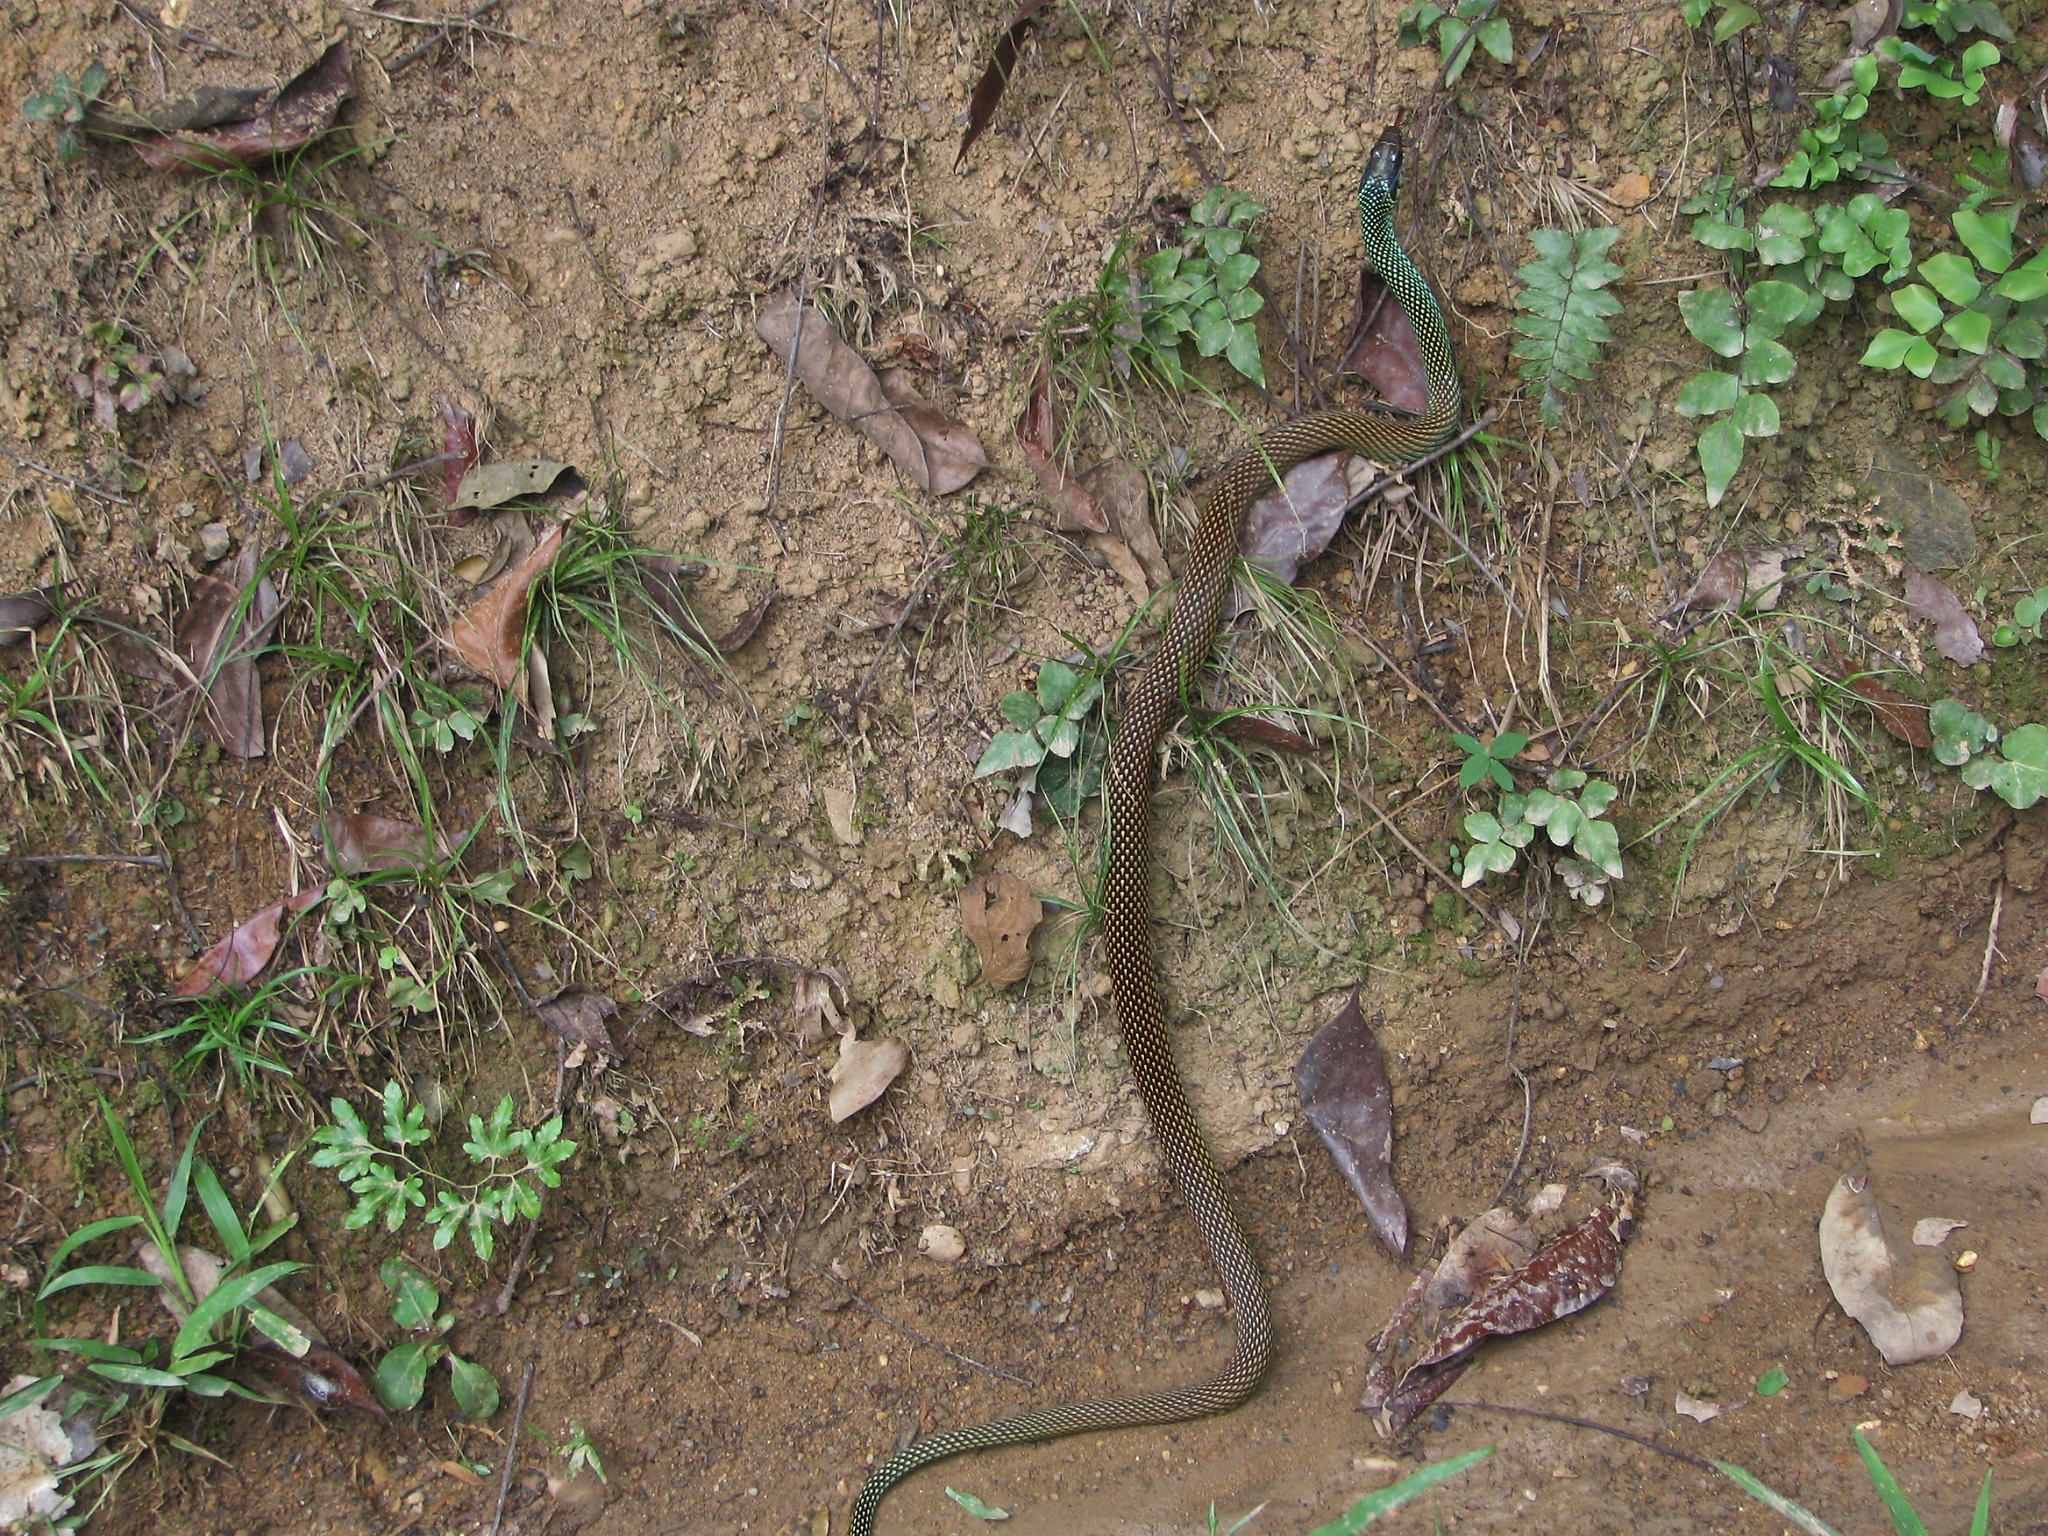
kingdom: Animalia
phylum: Chordata
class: Squamata
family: Colubridae
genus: Drymobius
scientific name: Drymobius margaritiferus
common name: Central american speckled racer
